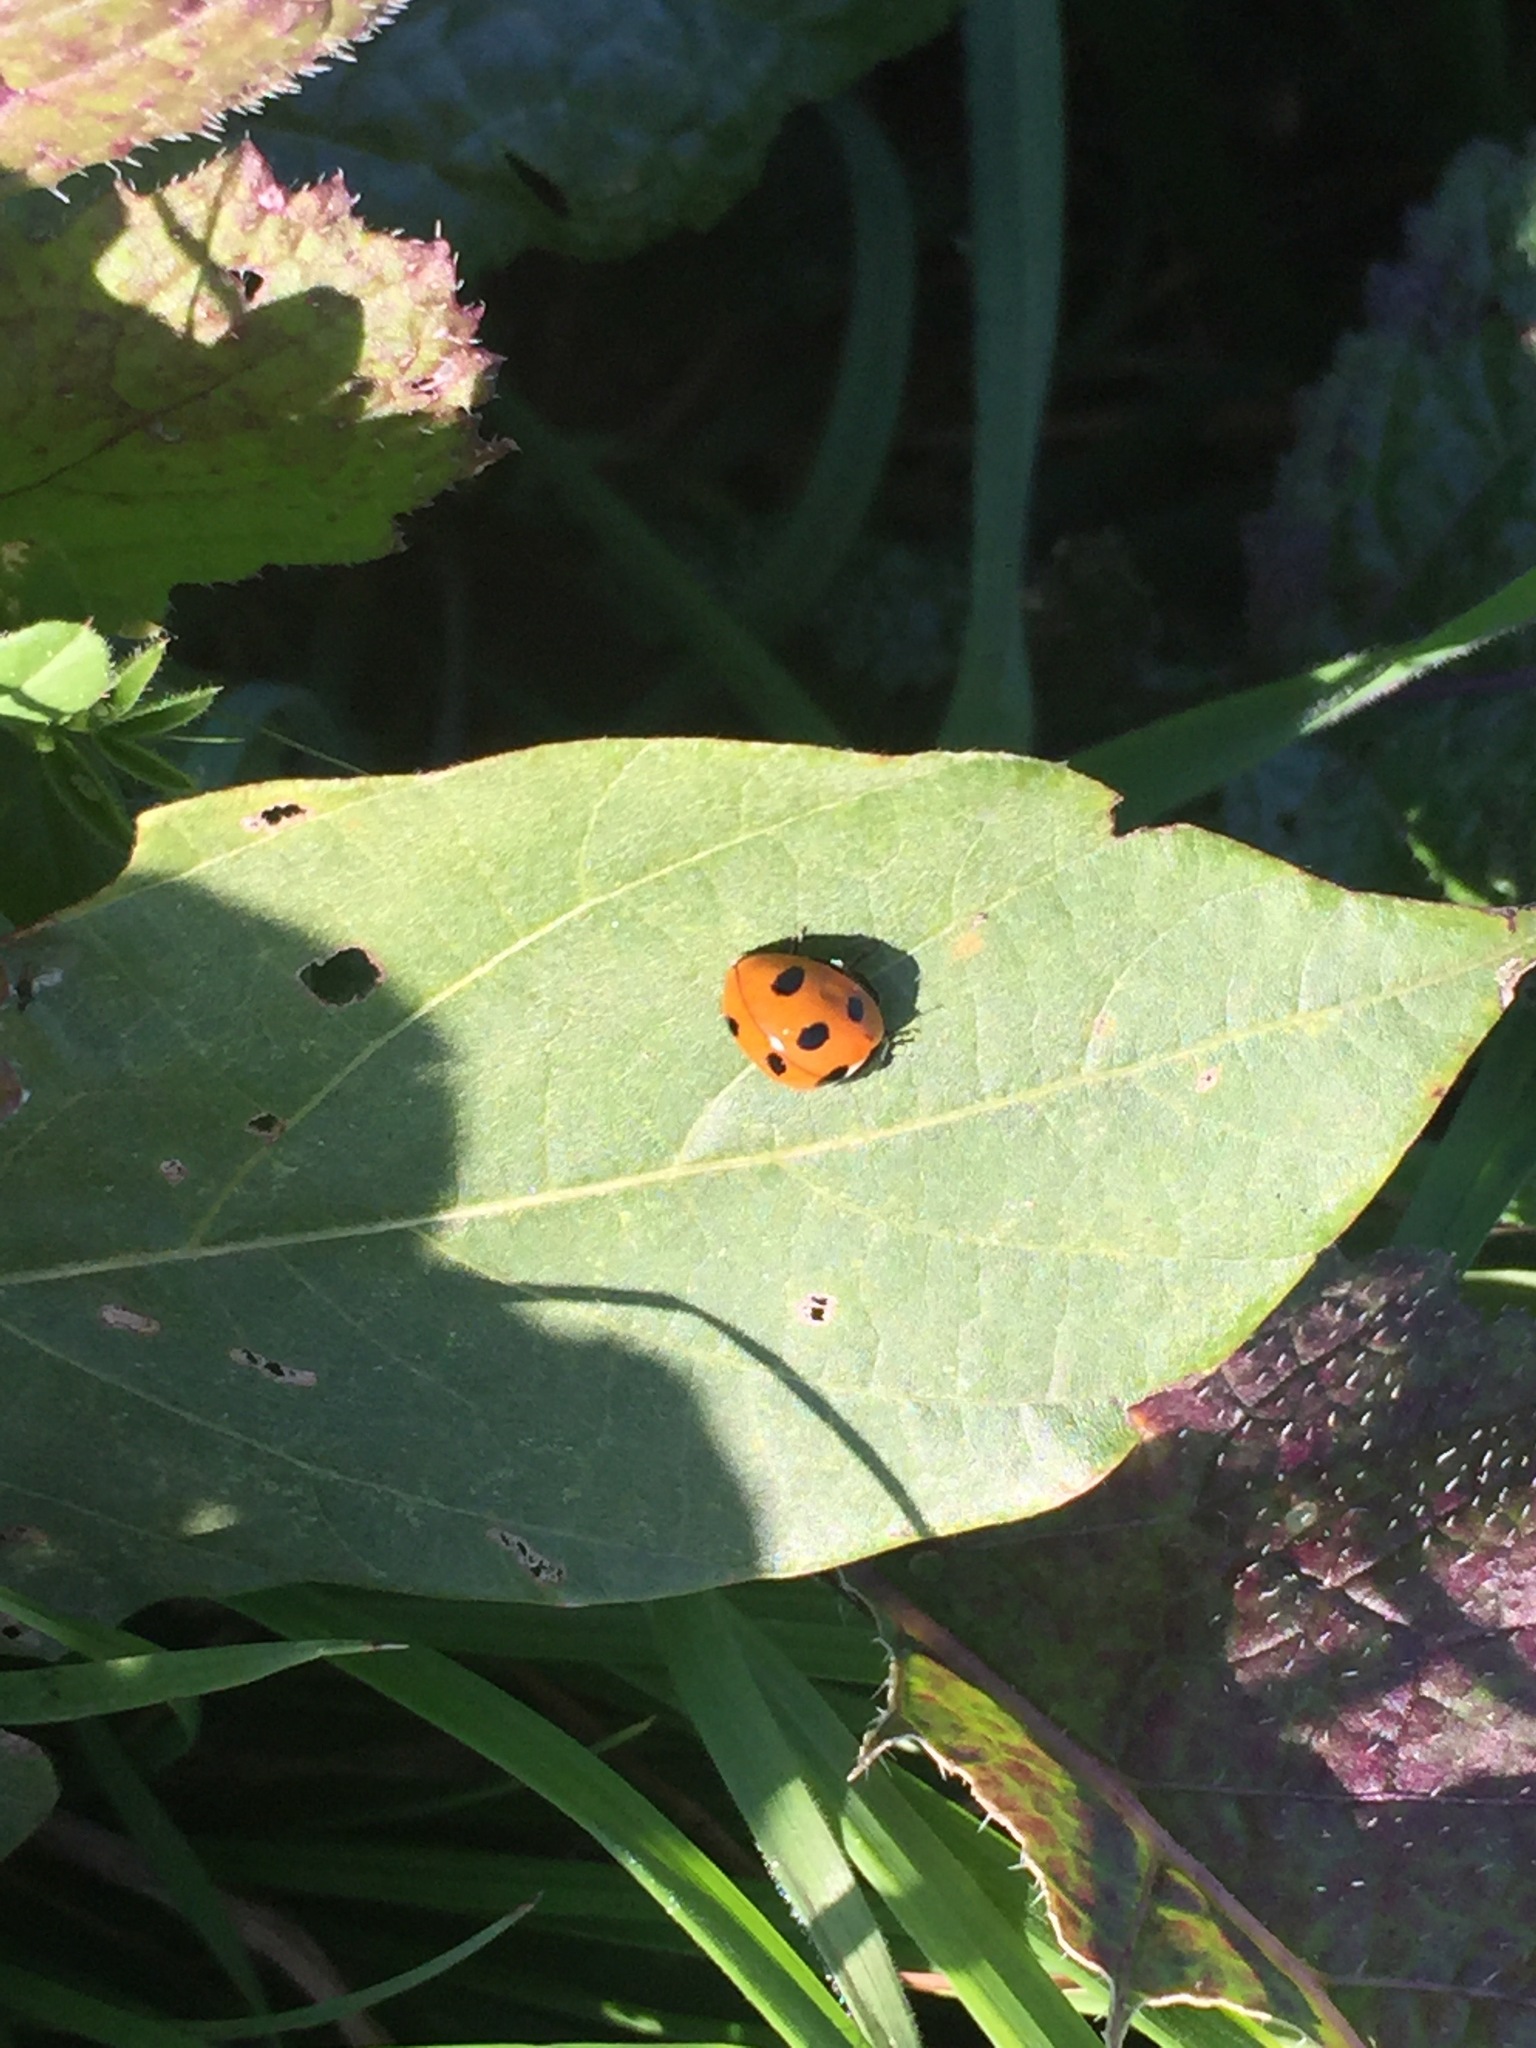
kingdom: Animalia
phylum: Arthropoda
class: Insecta
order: Coleoptera
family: Coccinellidae
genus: Coccinella
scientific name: Coccinella septempunctata
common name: Sevenspotted lady beetle
